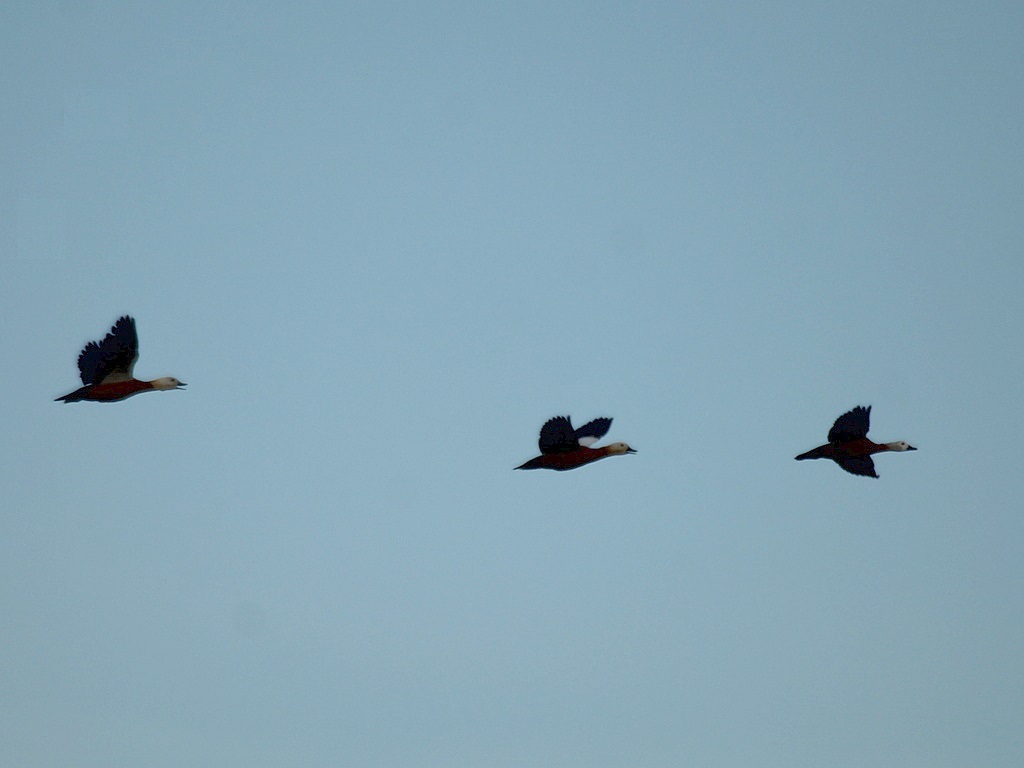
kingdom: Animalia
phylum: Chordata
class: Aves
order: Anseriformes
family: Anatidae
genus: Tadorna
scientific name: Tadorna ferruginea
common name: Ruddy shelduck
